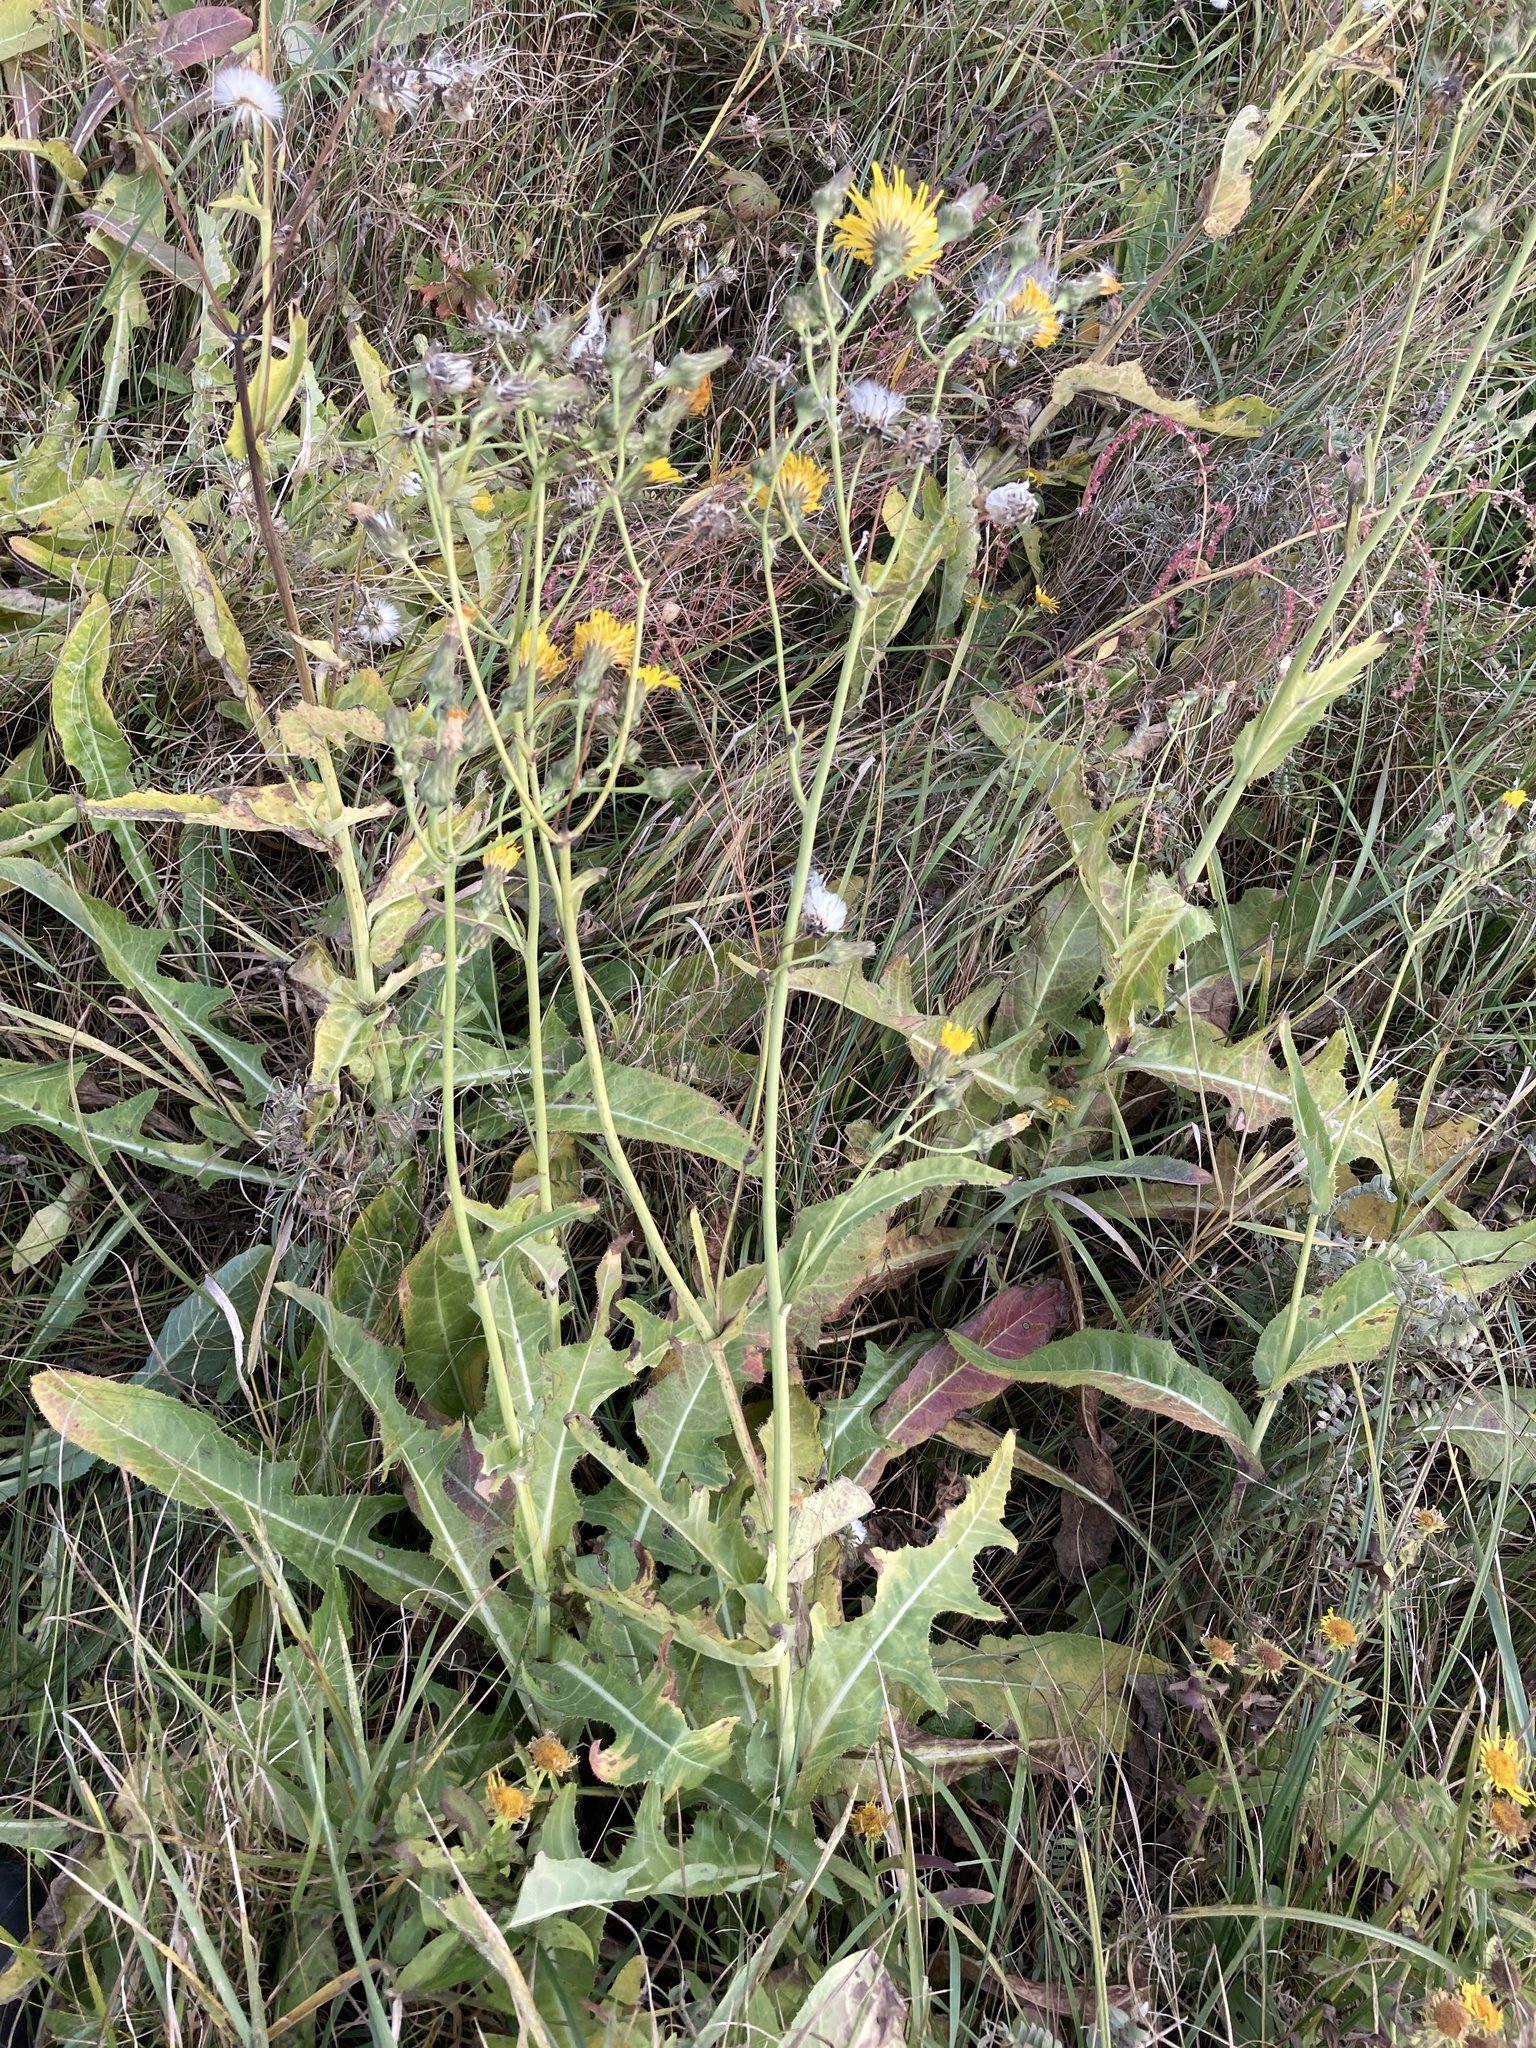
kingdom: Plantae
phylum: Tracheophyta
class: Magnoliopsida
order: Asterales
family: Asteraceae
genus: Sonchus
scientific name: Sonchus arvensis
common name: Perennial sow-thistle
